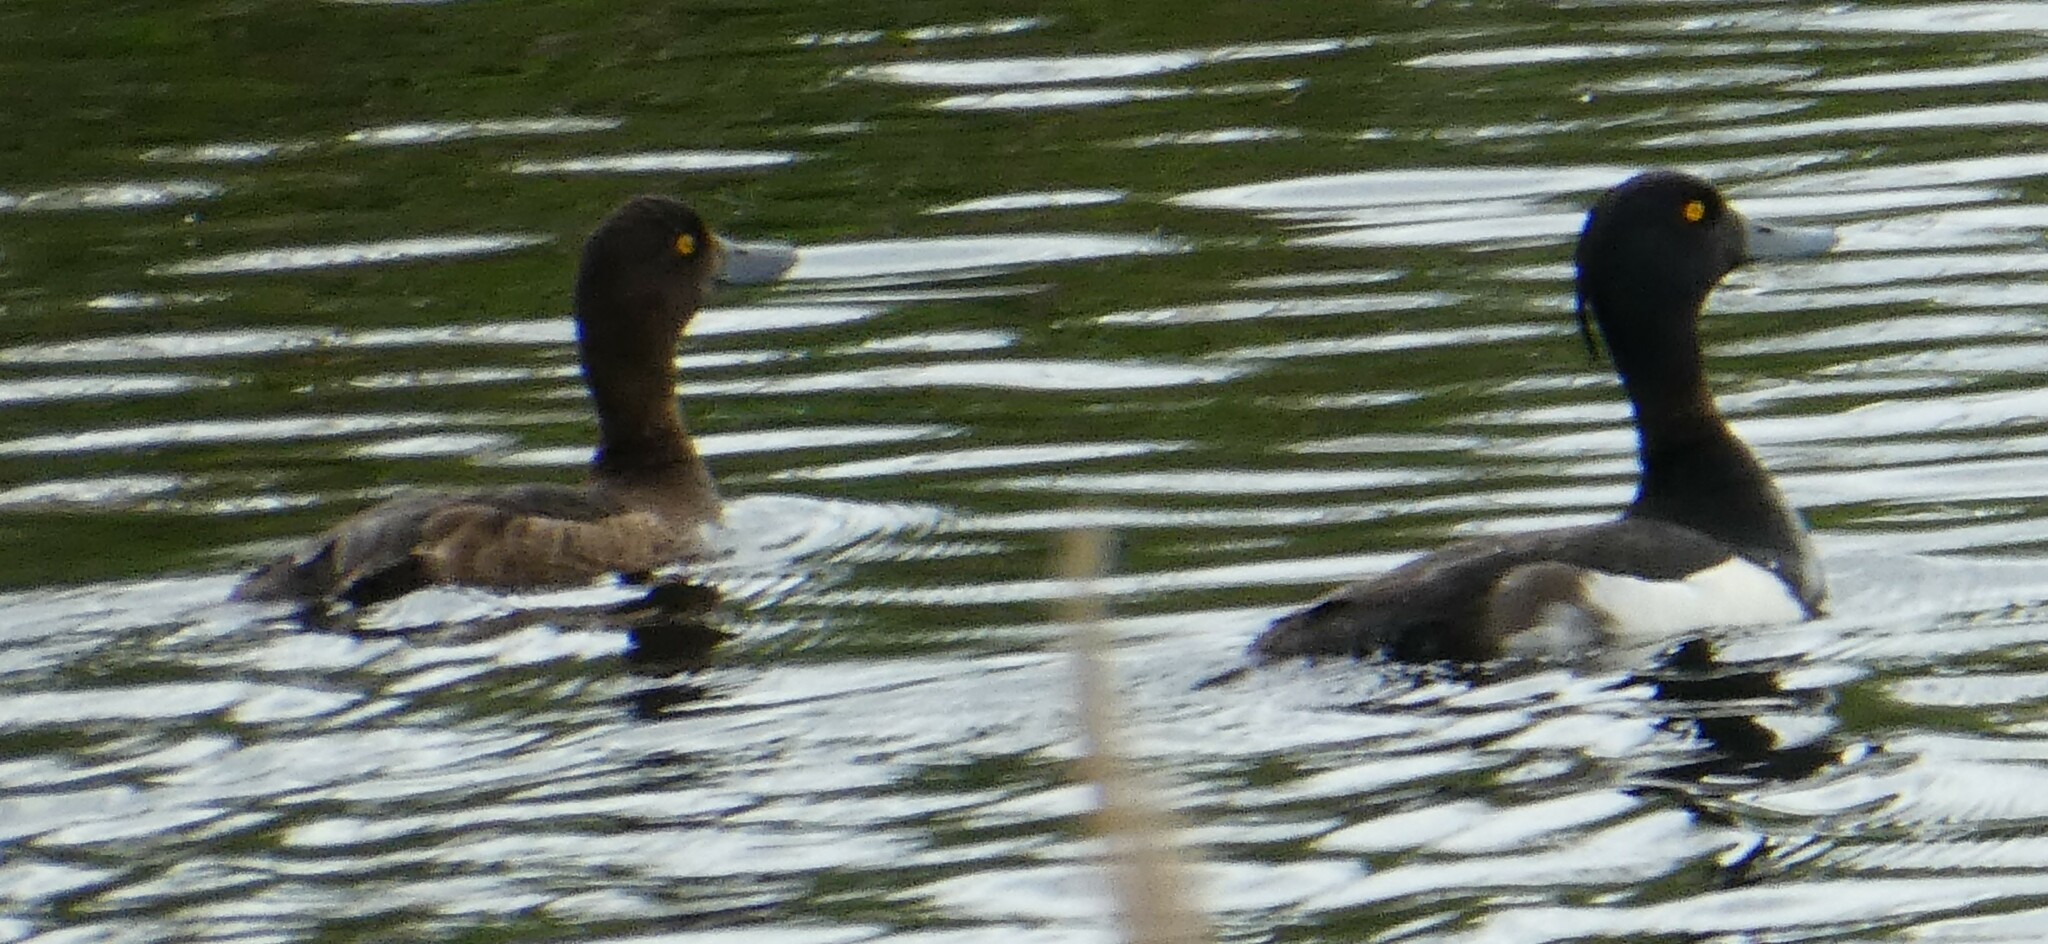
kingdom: Animalia
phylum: Chordata
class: Aves
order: Anseriformes
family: Anatidae
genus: Aythya
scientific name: Aythya fuligula
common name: Tufted duck
